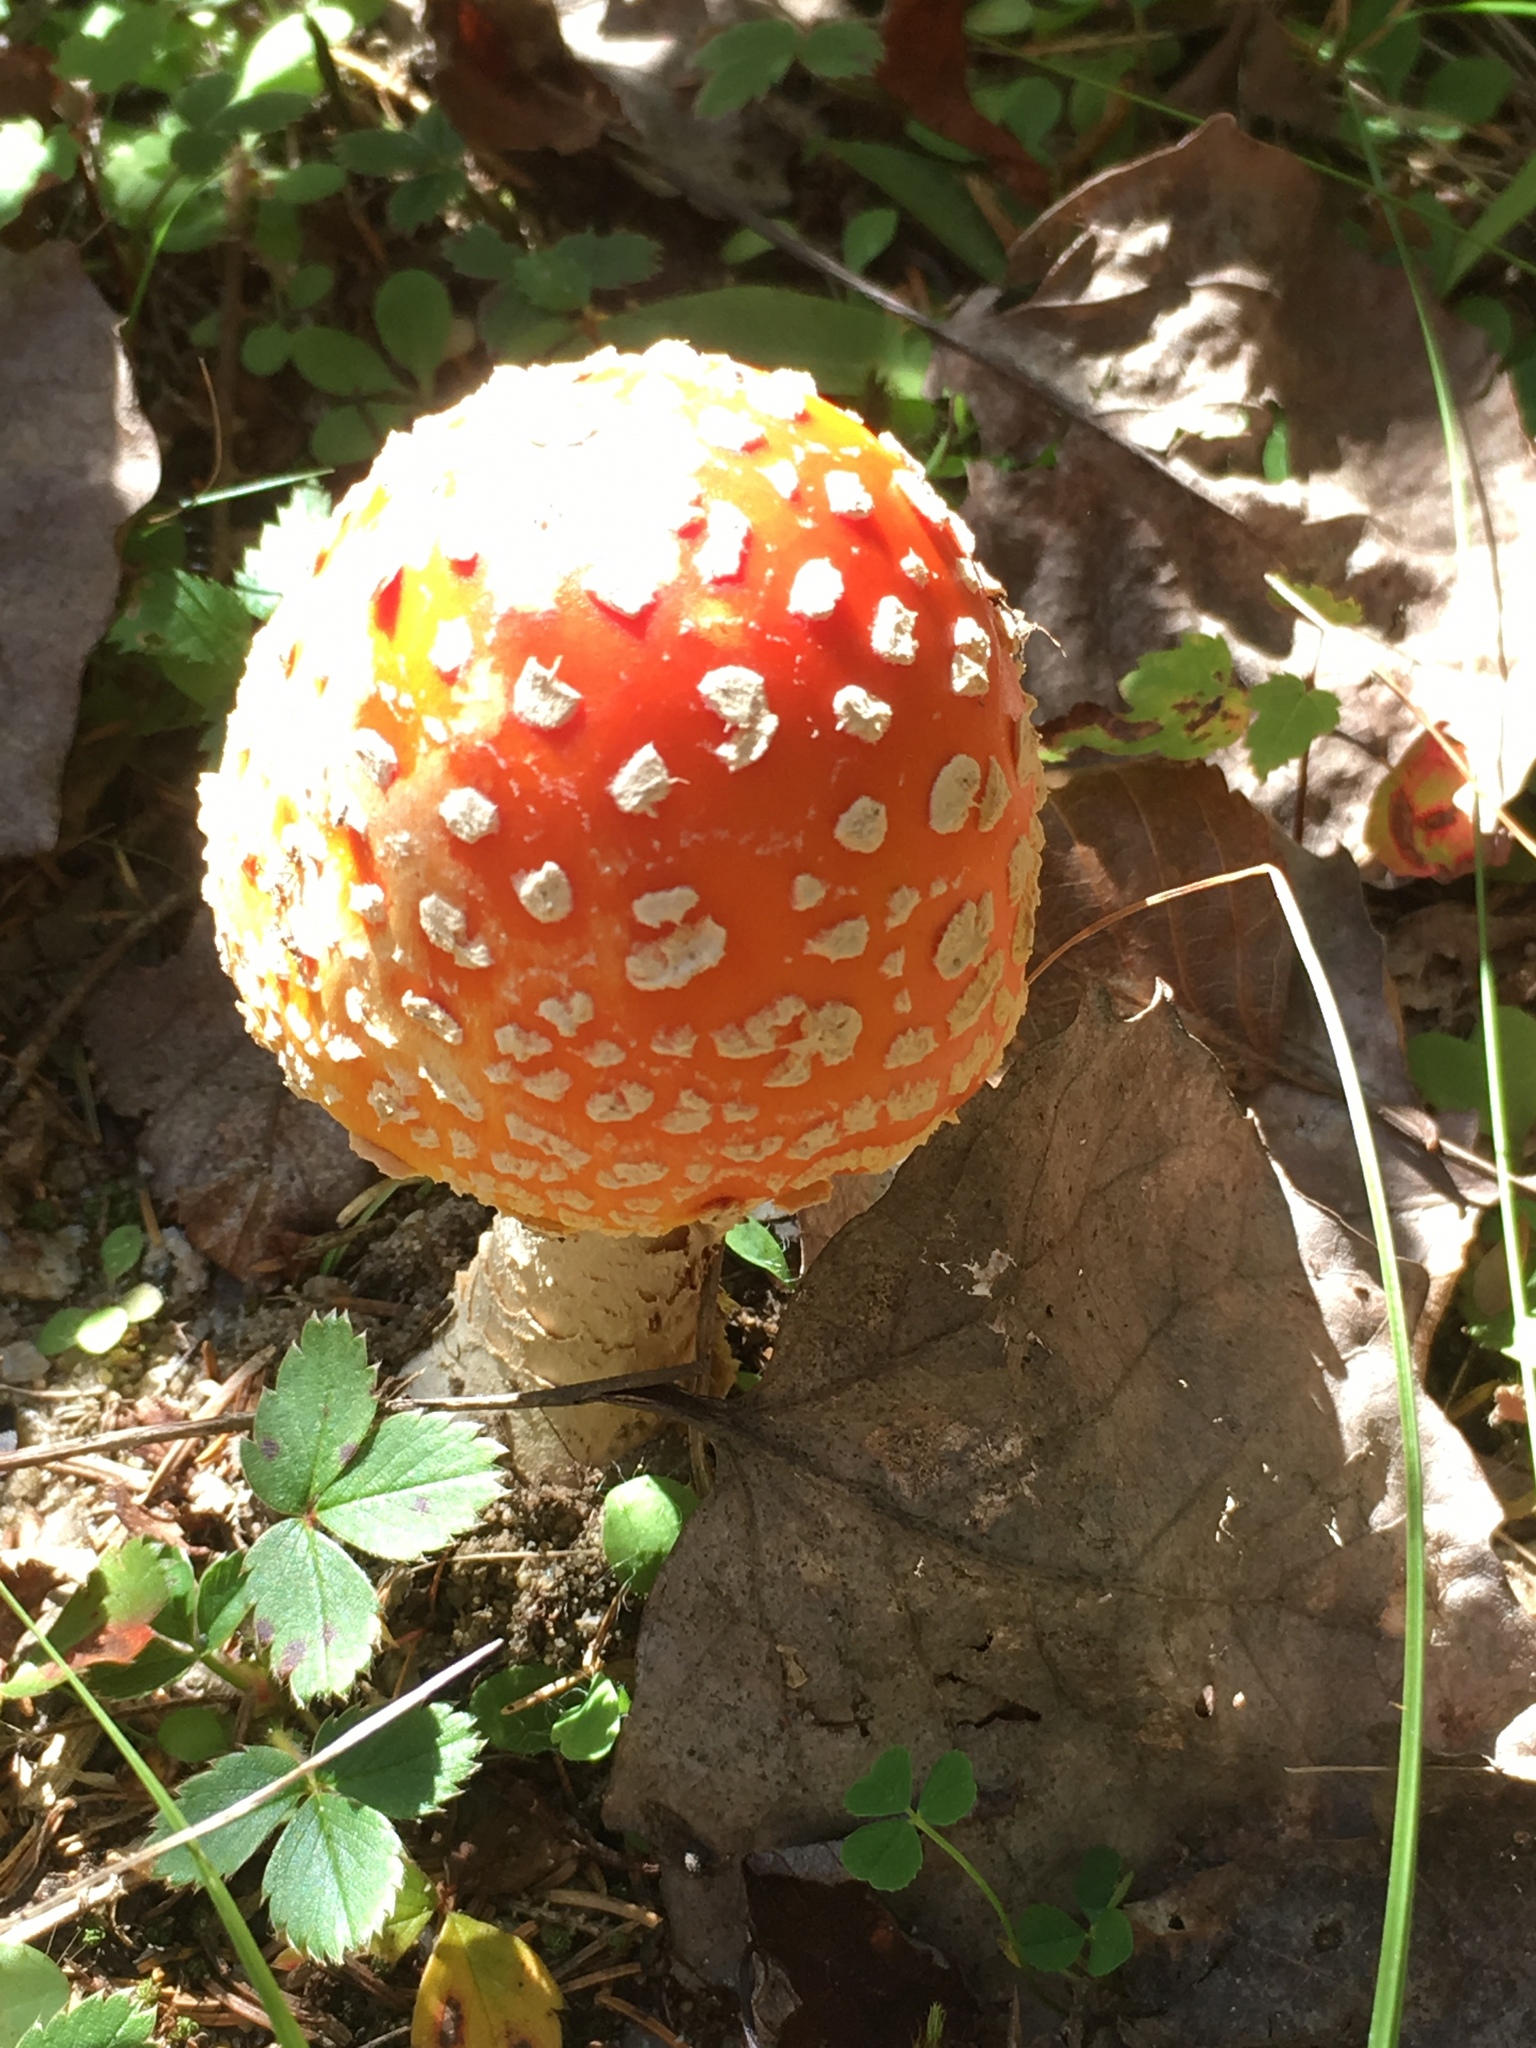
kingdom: Fungi
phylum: Basidiomycota
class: Agaricomycetes
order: Agaricales
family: Amanitaceae
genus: Amanita
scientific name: Amanita muscaria
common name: Fly agaric
